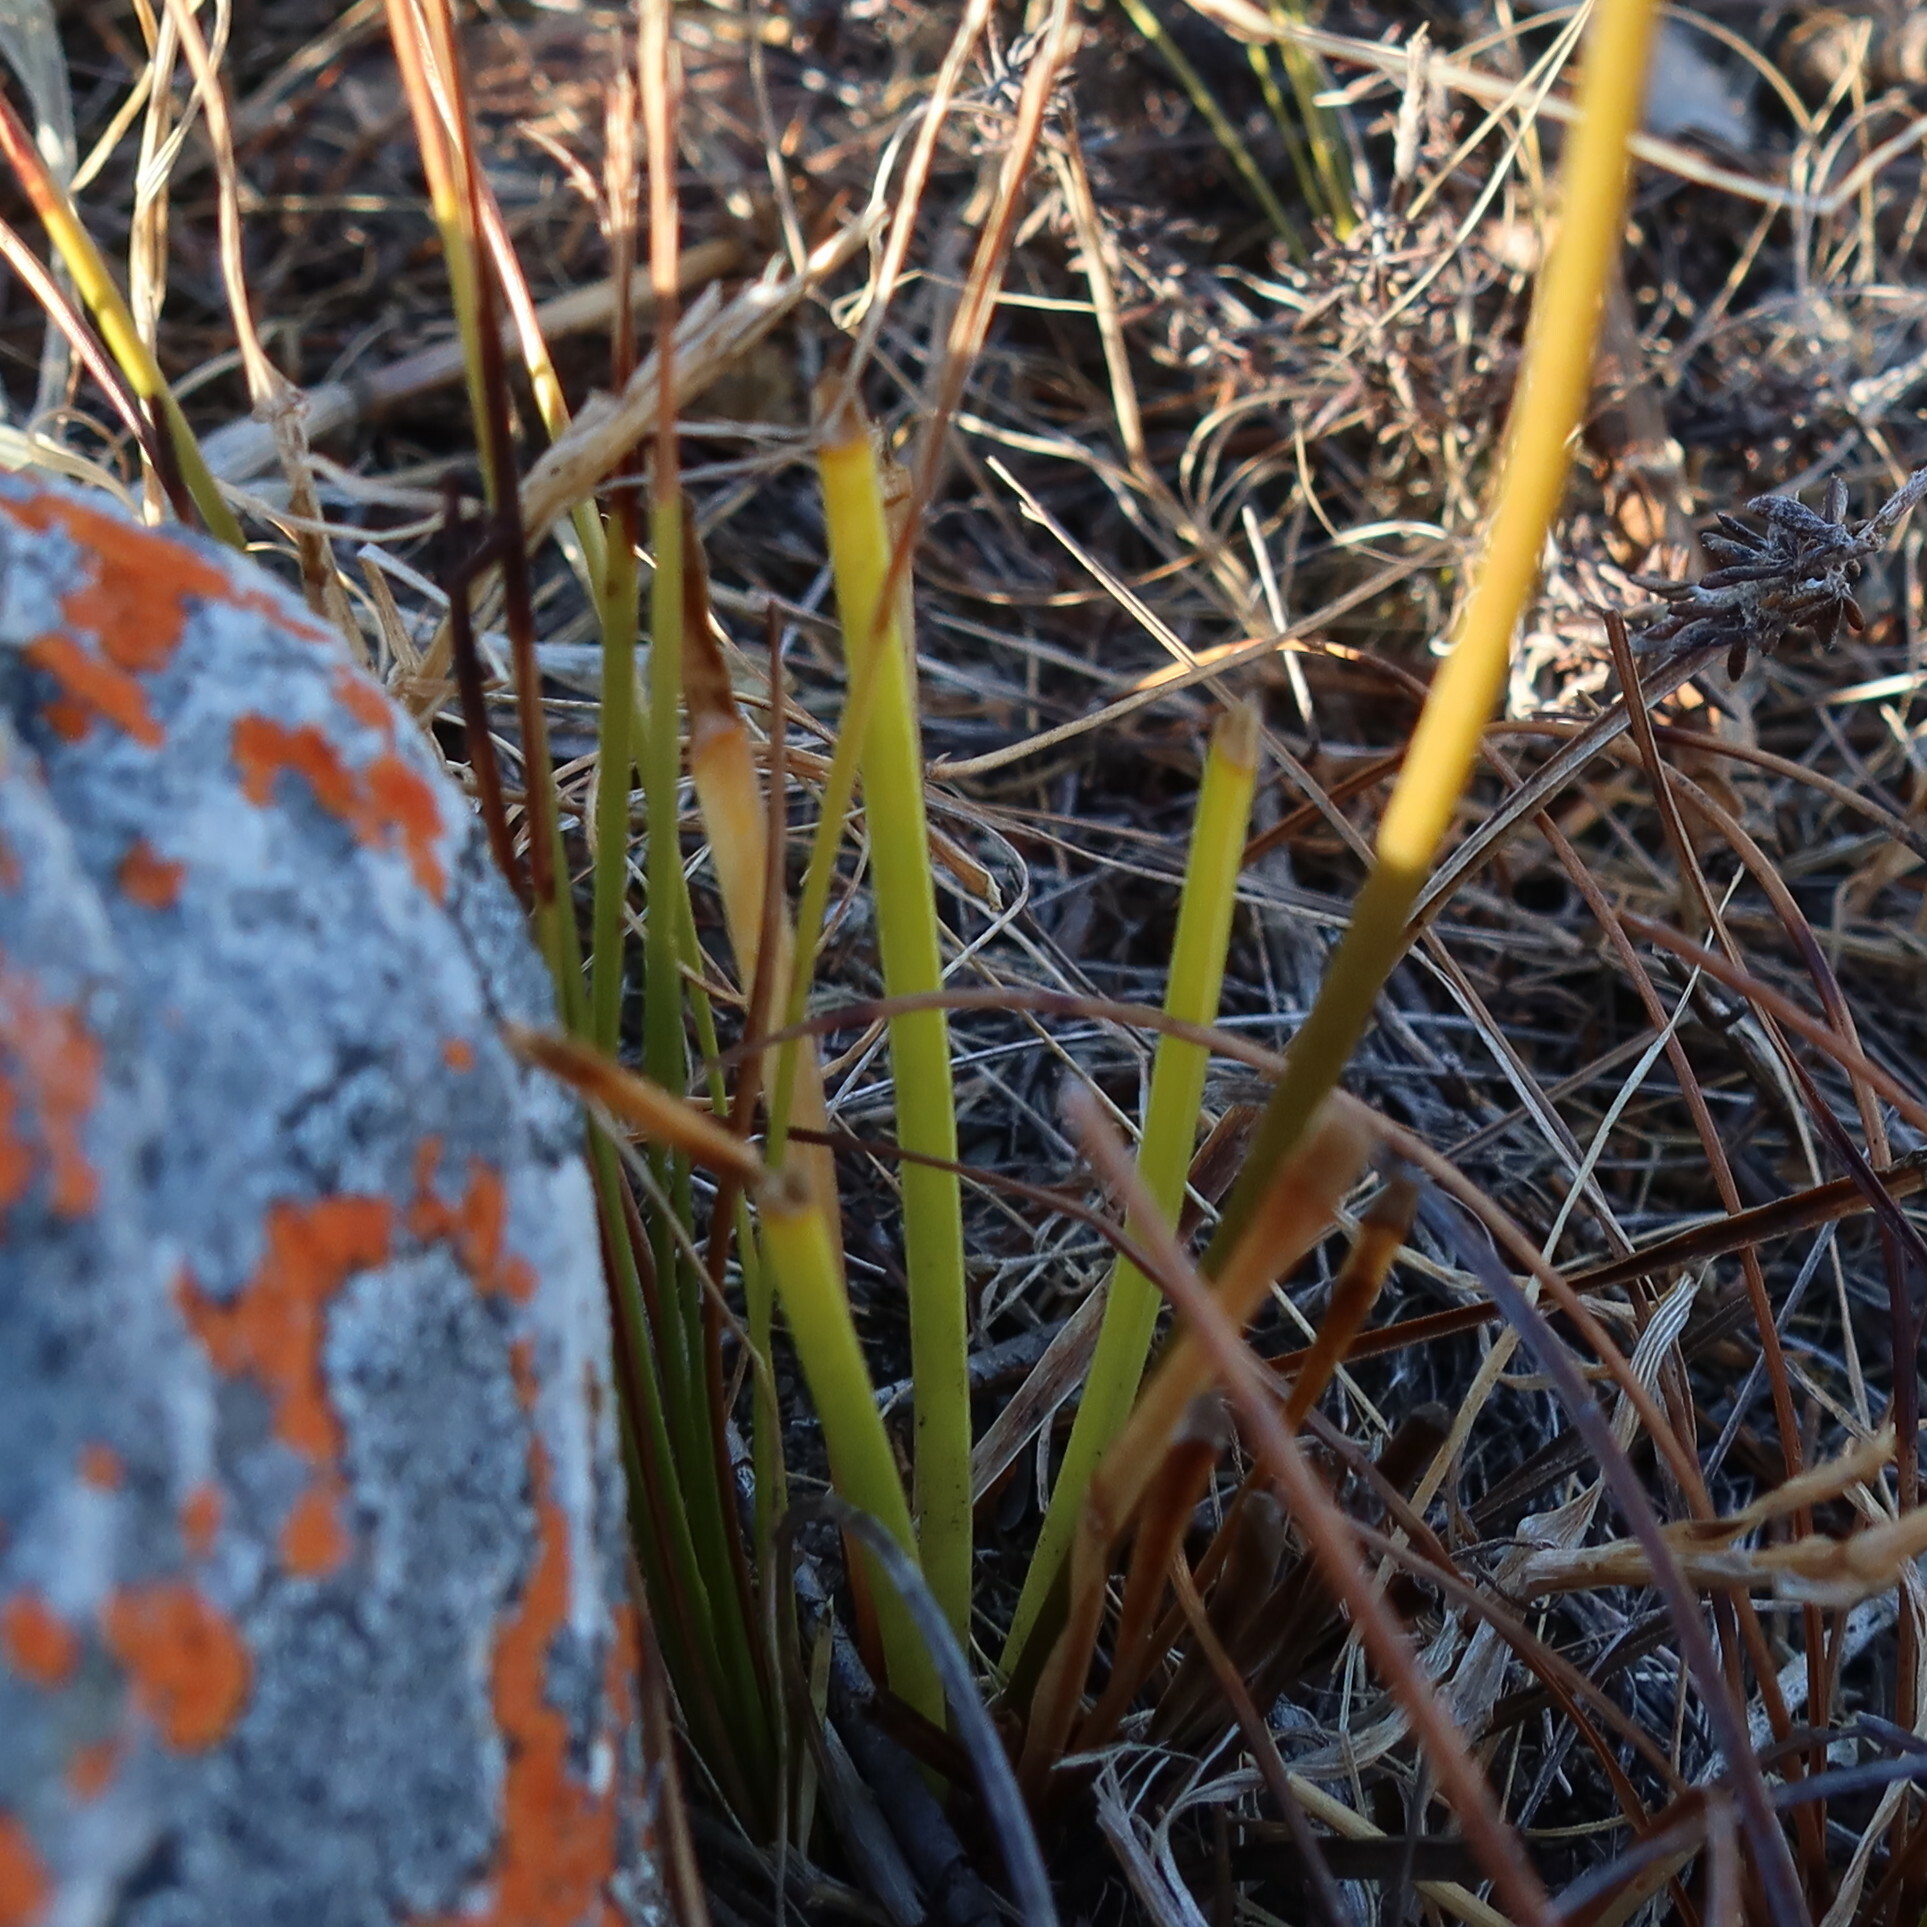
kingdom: Plantae
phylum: Tracheophyta
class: Liliopsida
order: Asparagales
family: Asparagaceae
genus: Drimia
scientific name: Drimia media
